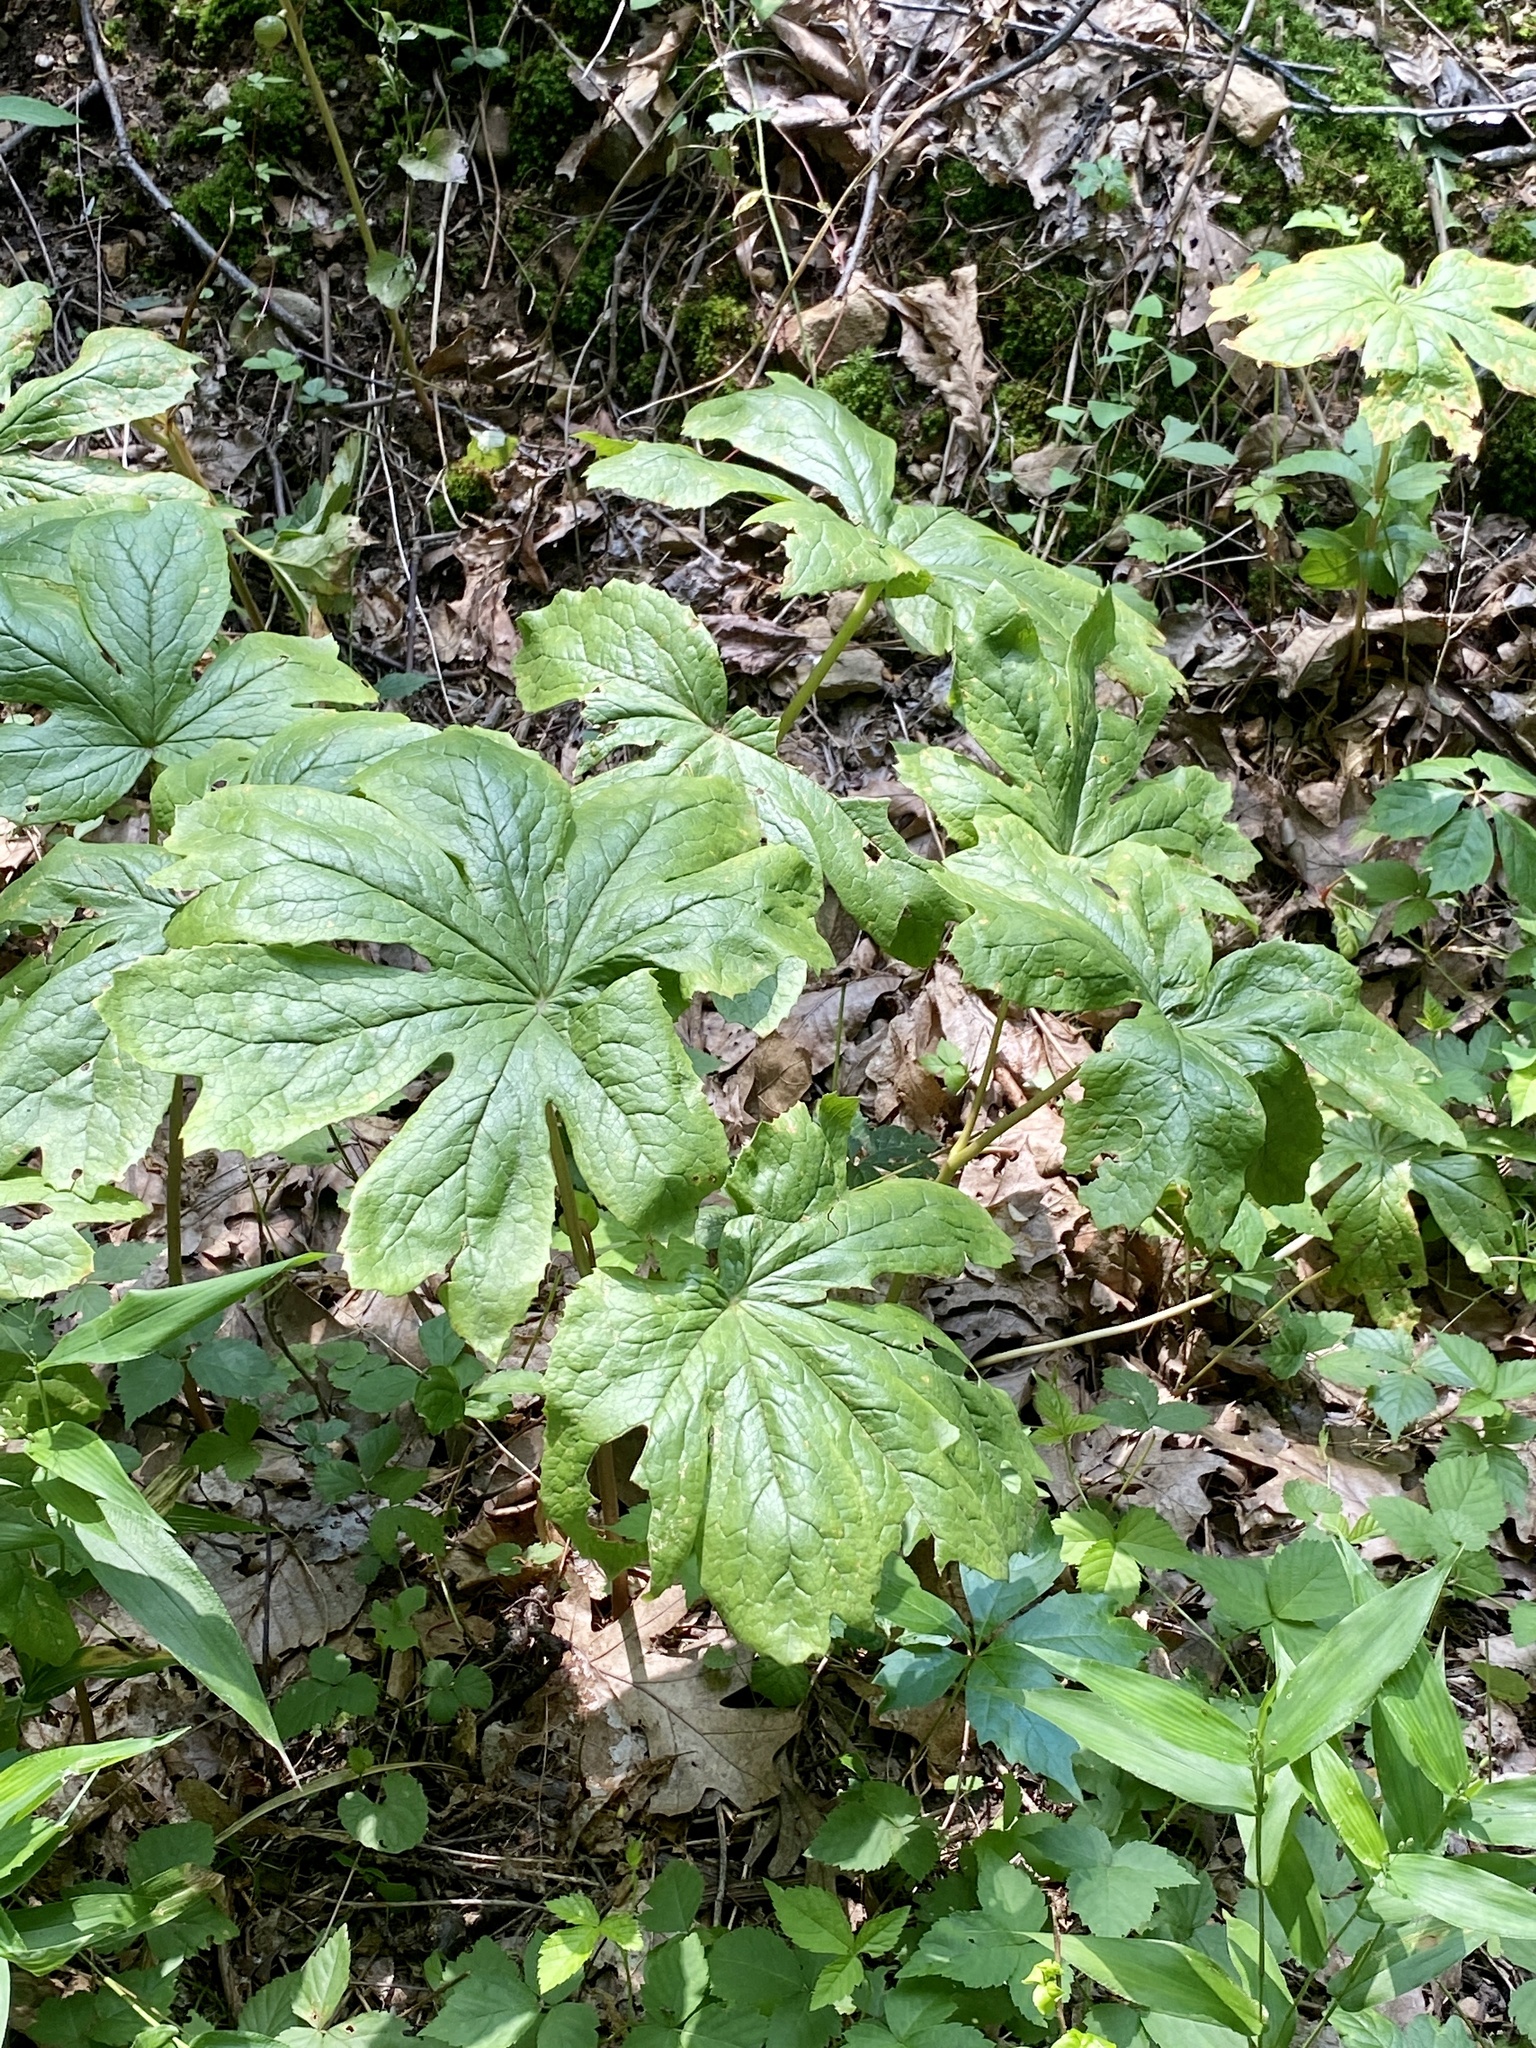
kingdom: Plantae
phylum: Tracheophyta
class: Magnoliopsida
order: Ranunculales
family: Berberidaceae
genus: Podophyllum
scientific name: Podophyllum peltatum
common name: Wild mandrake
